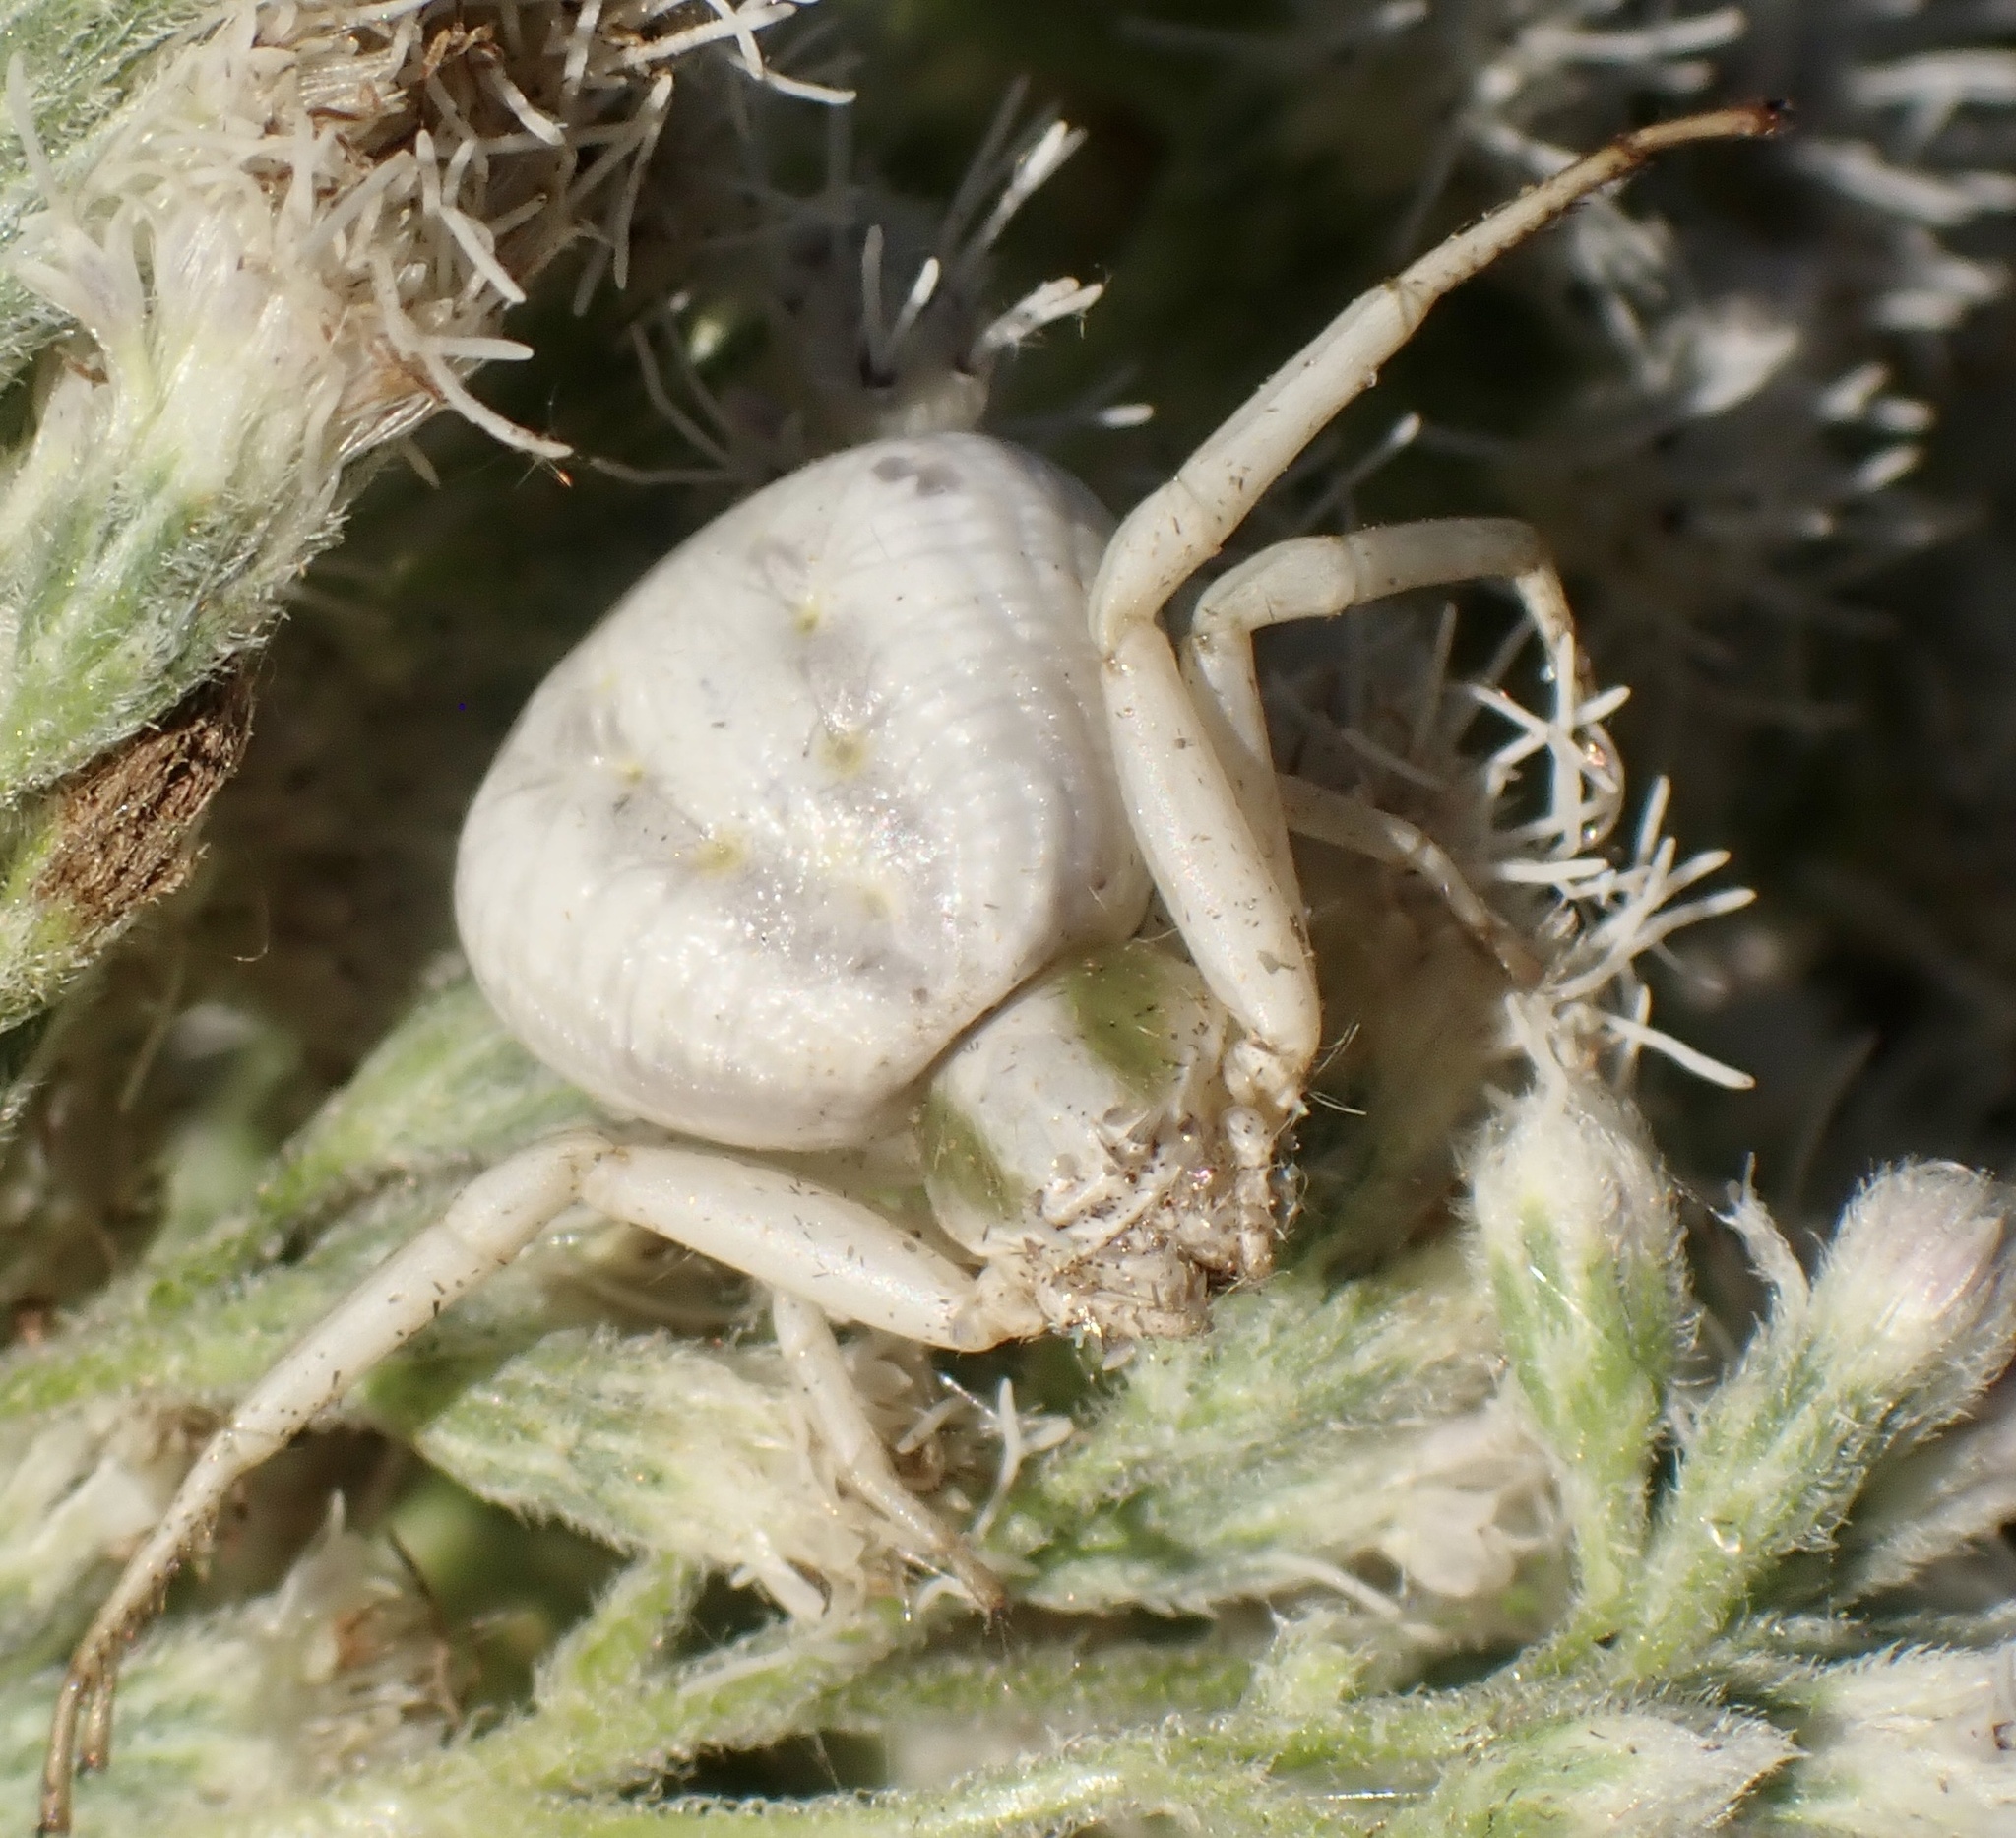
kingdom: Animalia
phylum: Arthropoda
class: Arachnida
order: Araneae
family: Thomisidae
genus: Misumenoides
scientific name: Misumenoides formosipes
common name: White-banded crab spider
